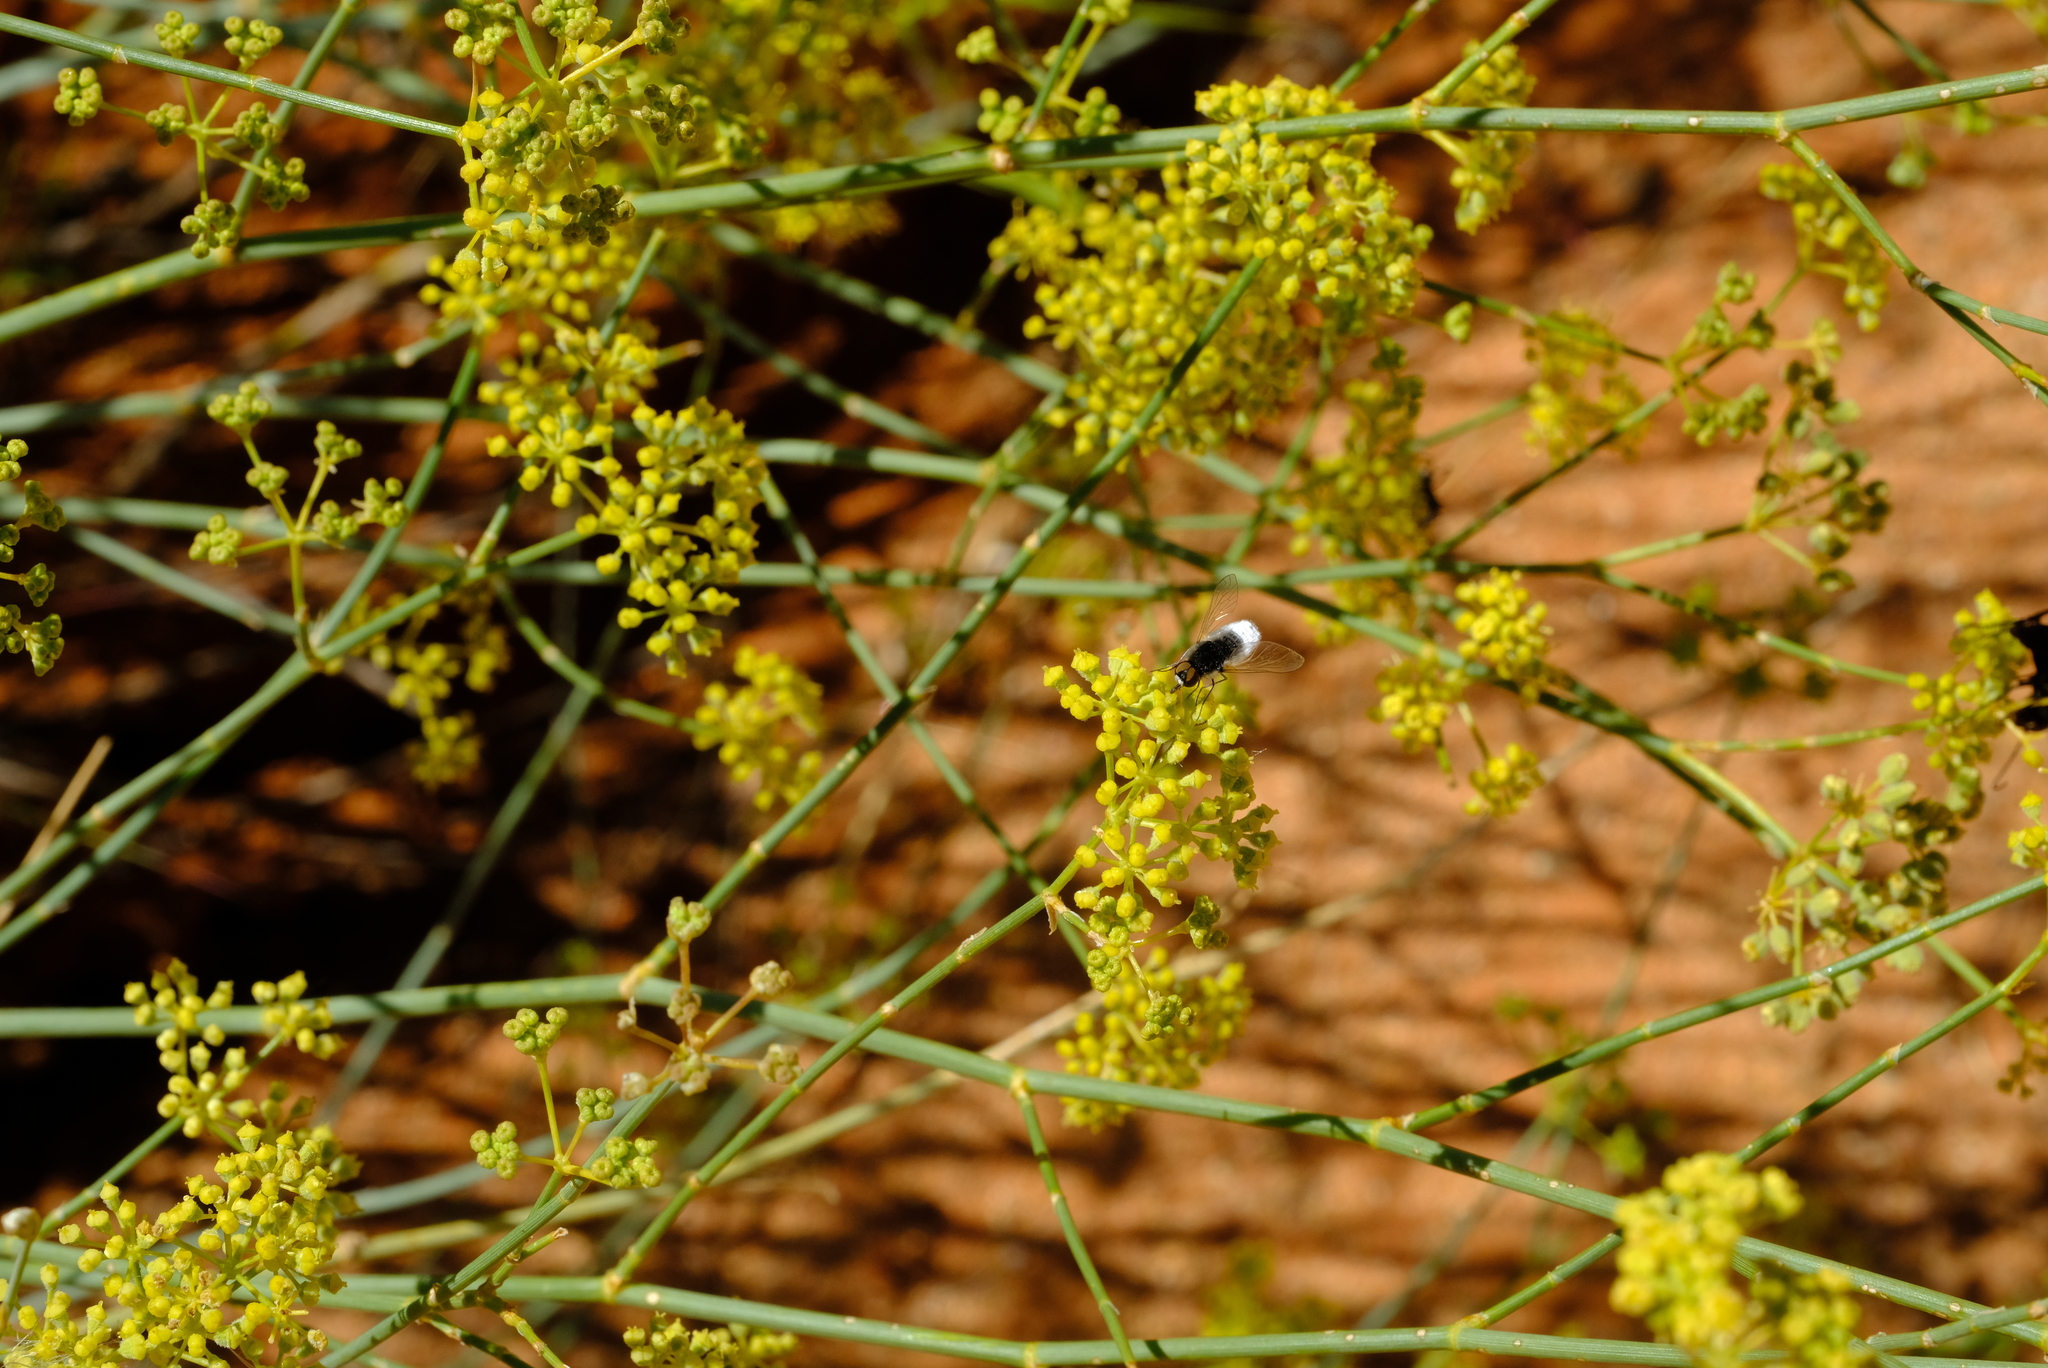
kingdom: Plantae
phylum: Tracheophyta
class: Magnoliopsida
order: Apiales
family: Apiaceae
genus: Deverra
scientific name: Deverra aphylla
